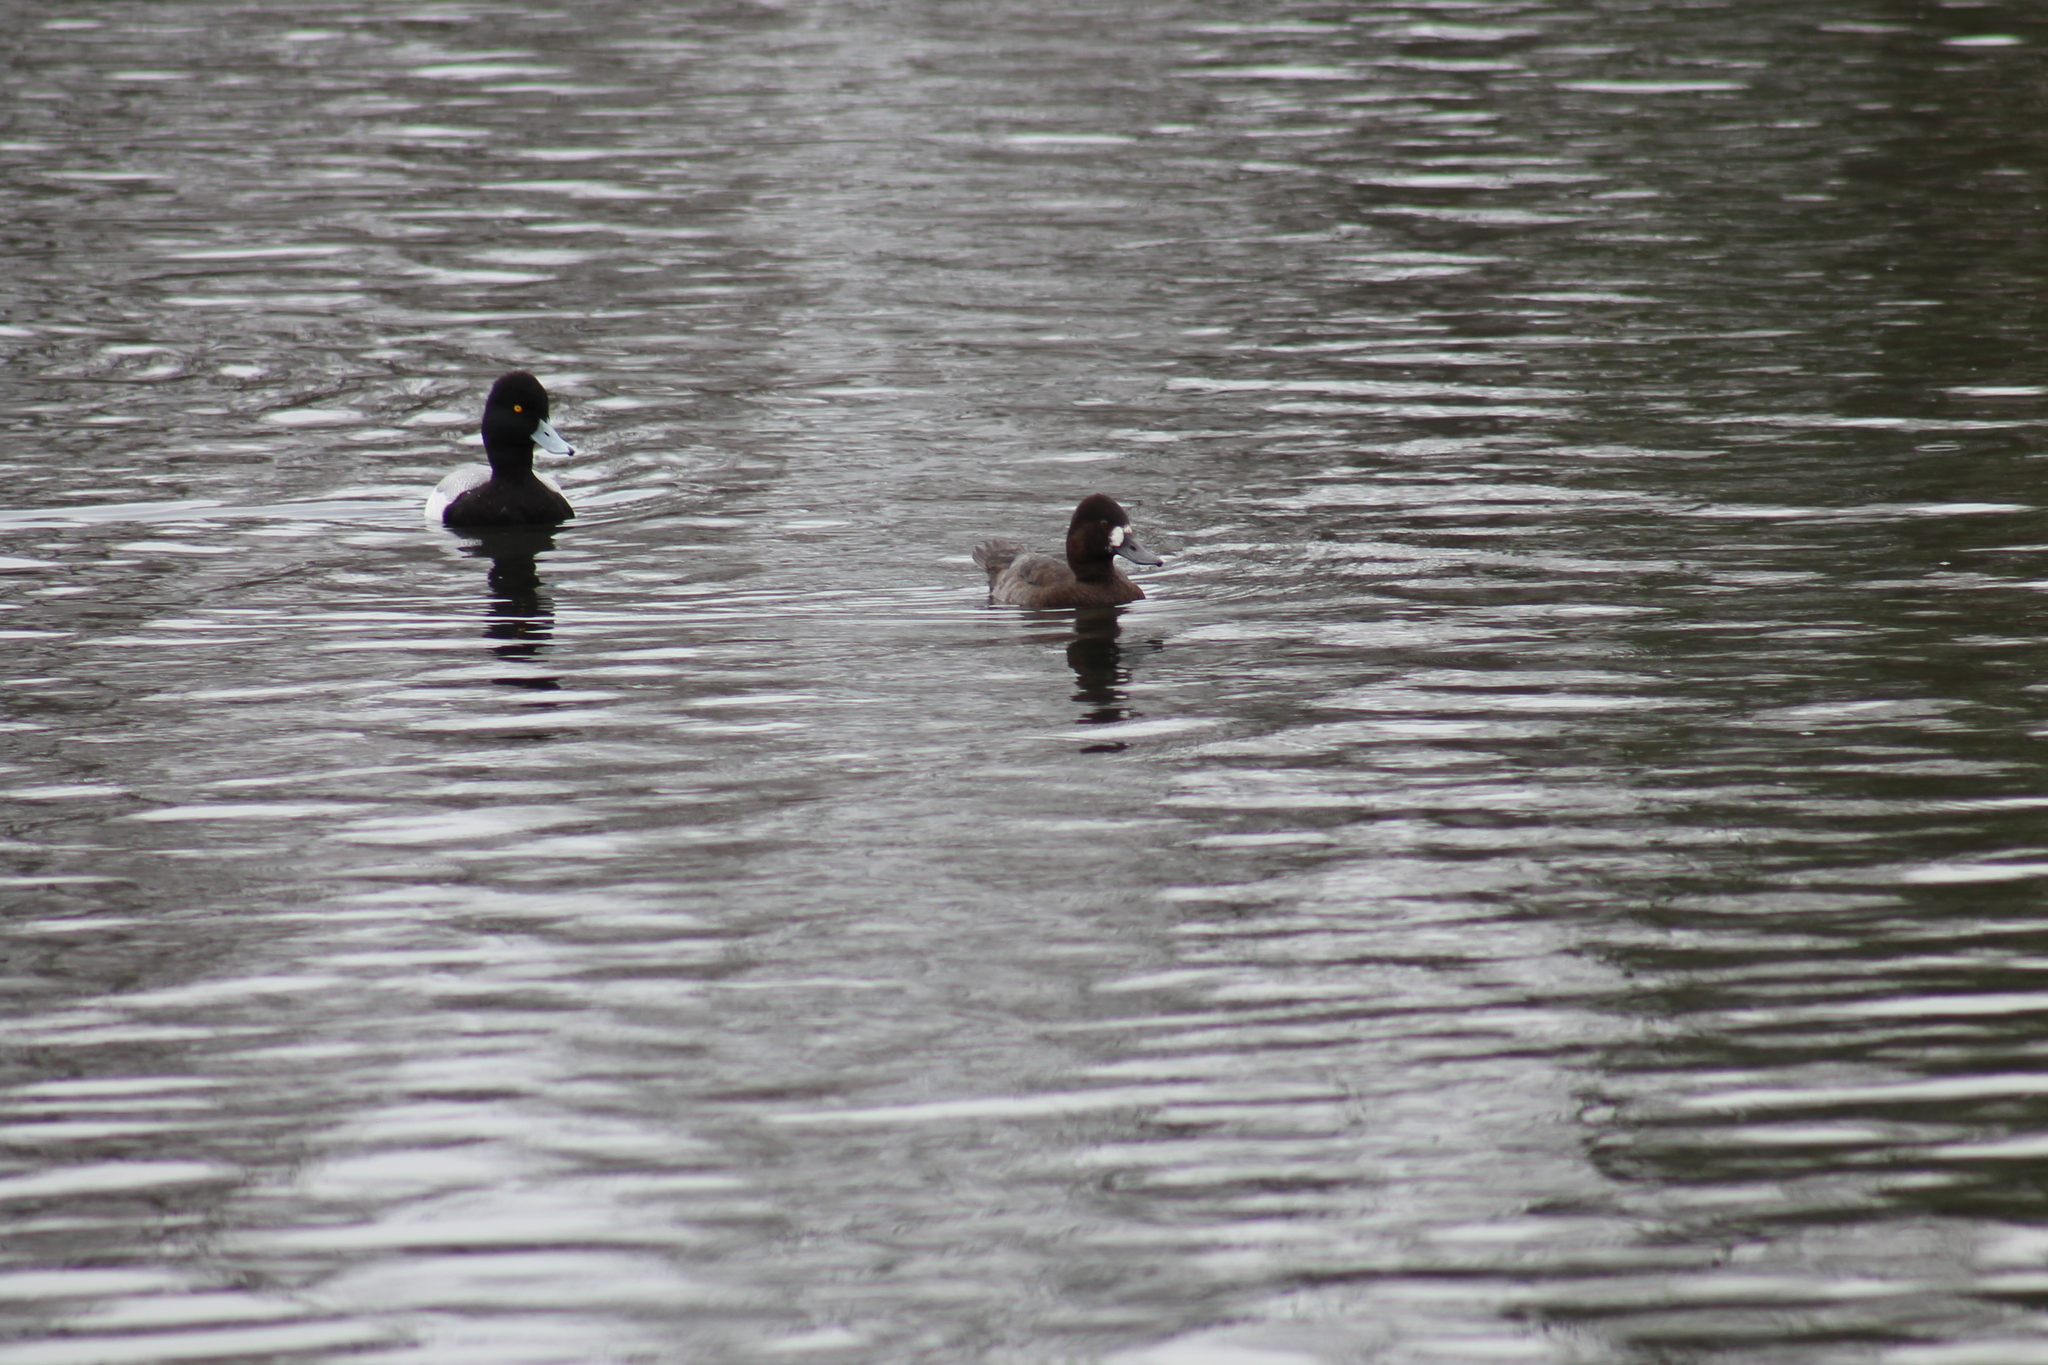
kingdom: Animalia
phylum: Chordata
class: Aves
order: Anseriformes
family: Anatidae
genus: Aythya
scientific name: Aythya affinis
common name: Lesser scaup
